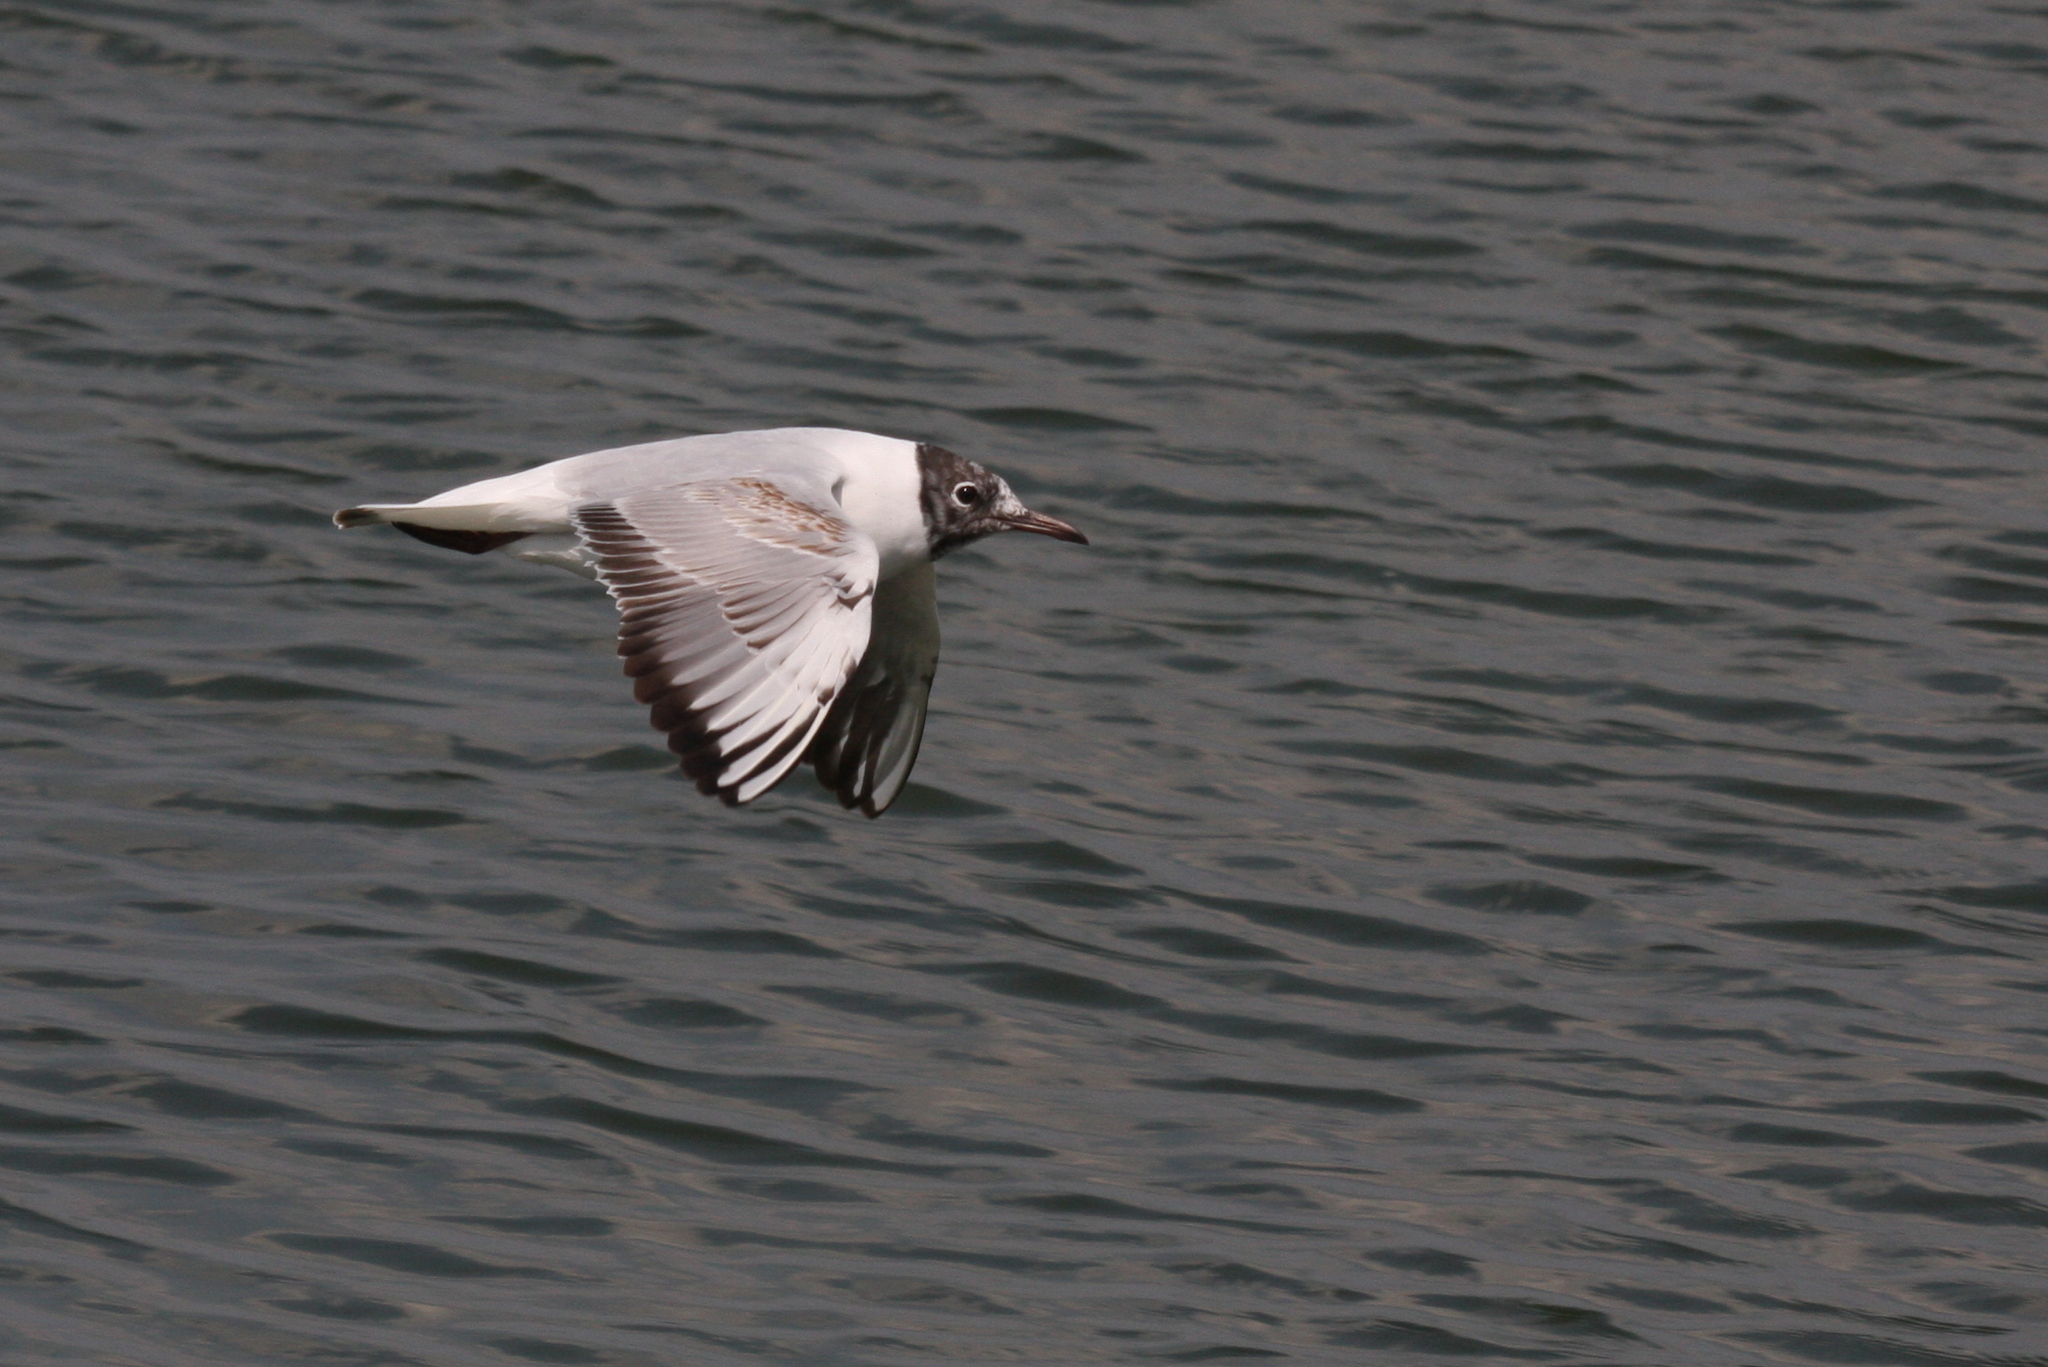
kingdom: Animalia
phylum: Chordata
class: Aves
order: Charadriiformes
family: Laridae
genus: Chroicocephalus
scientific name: Chroicocephalus ridibundus
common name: Black-headed gull
